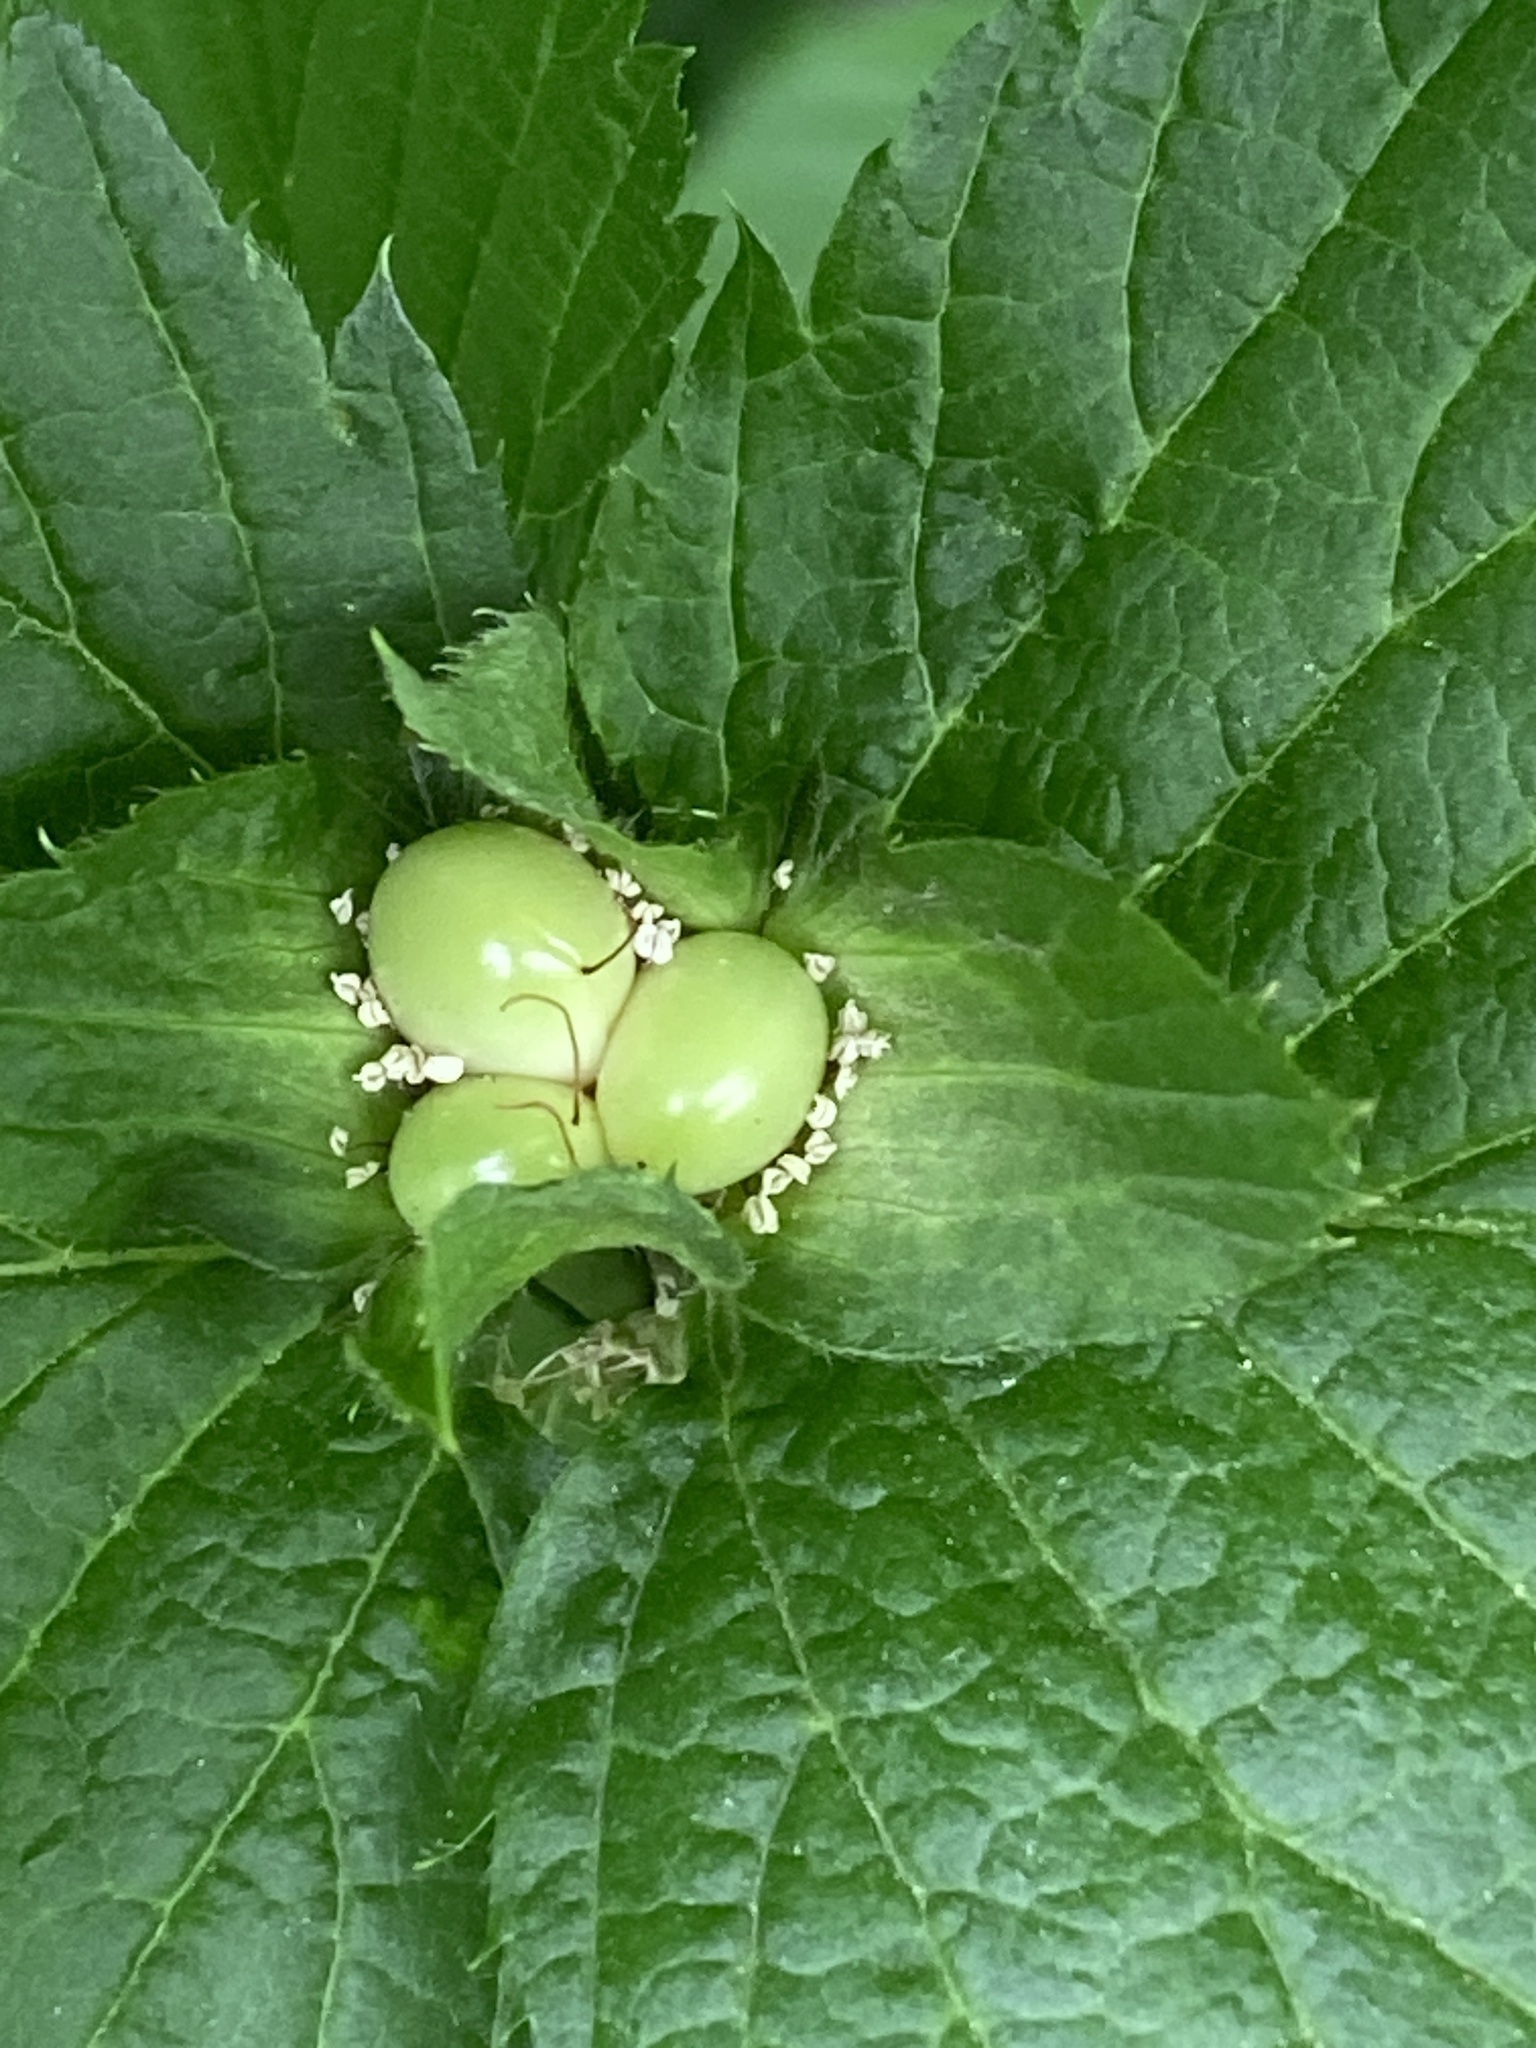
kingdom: Plantae
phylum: Tracheophyta
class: Magnoliopsida
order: Rosales
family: Rosaceae
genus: Rhodotypos
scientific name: Rhodotypos scandens
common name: Jetbead
